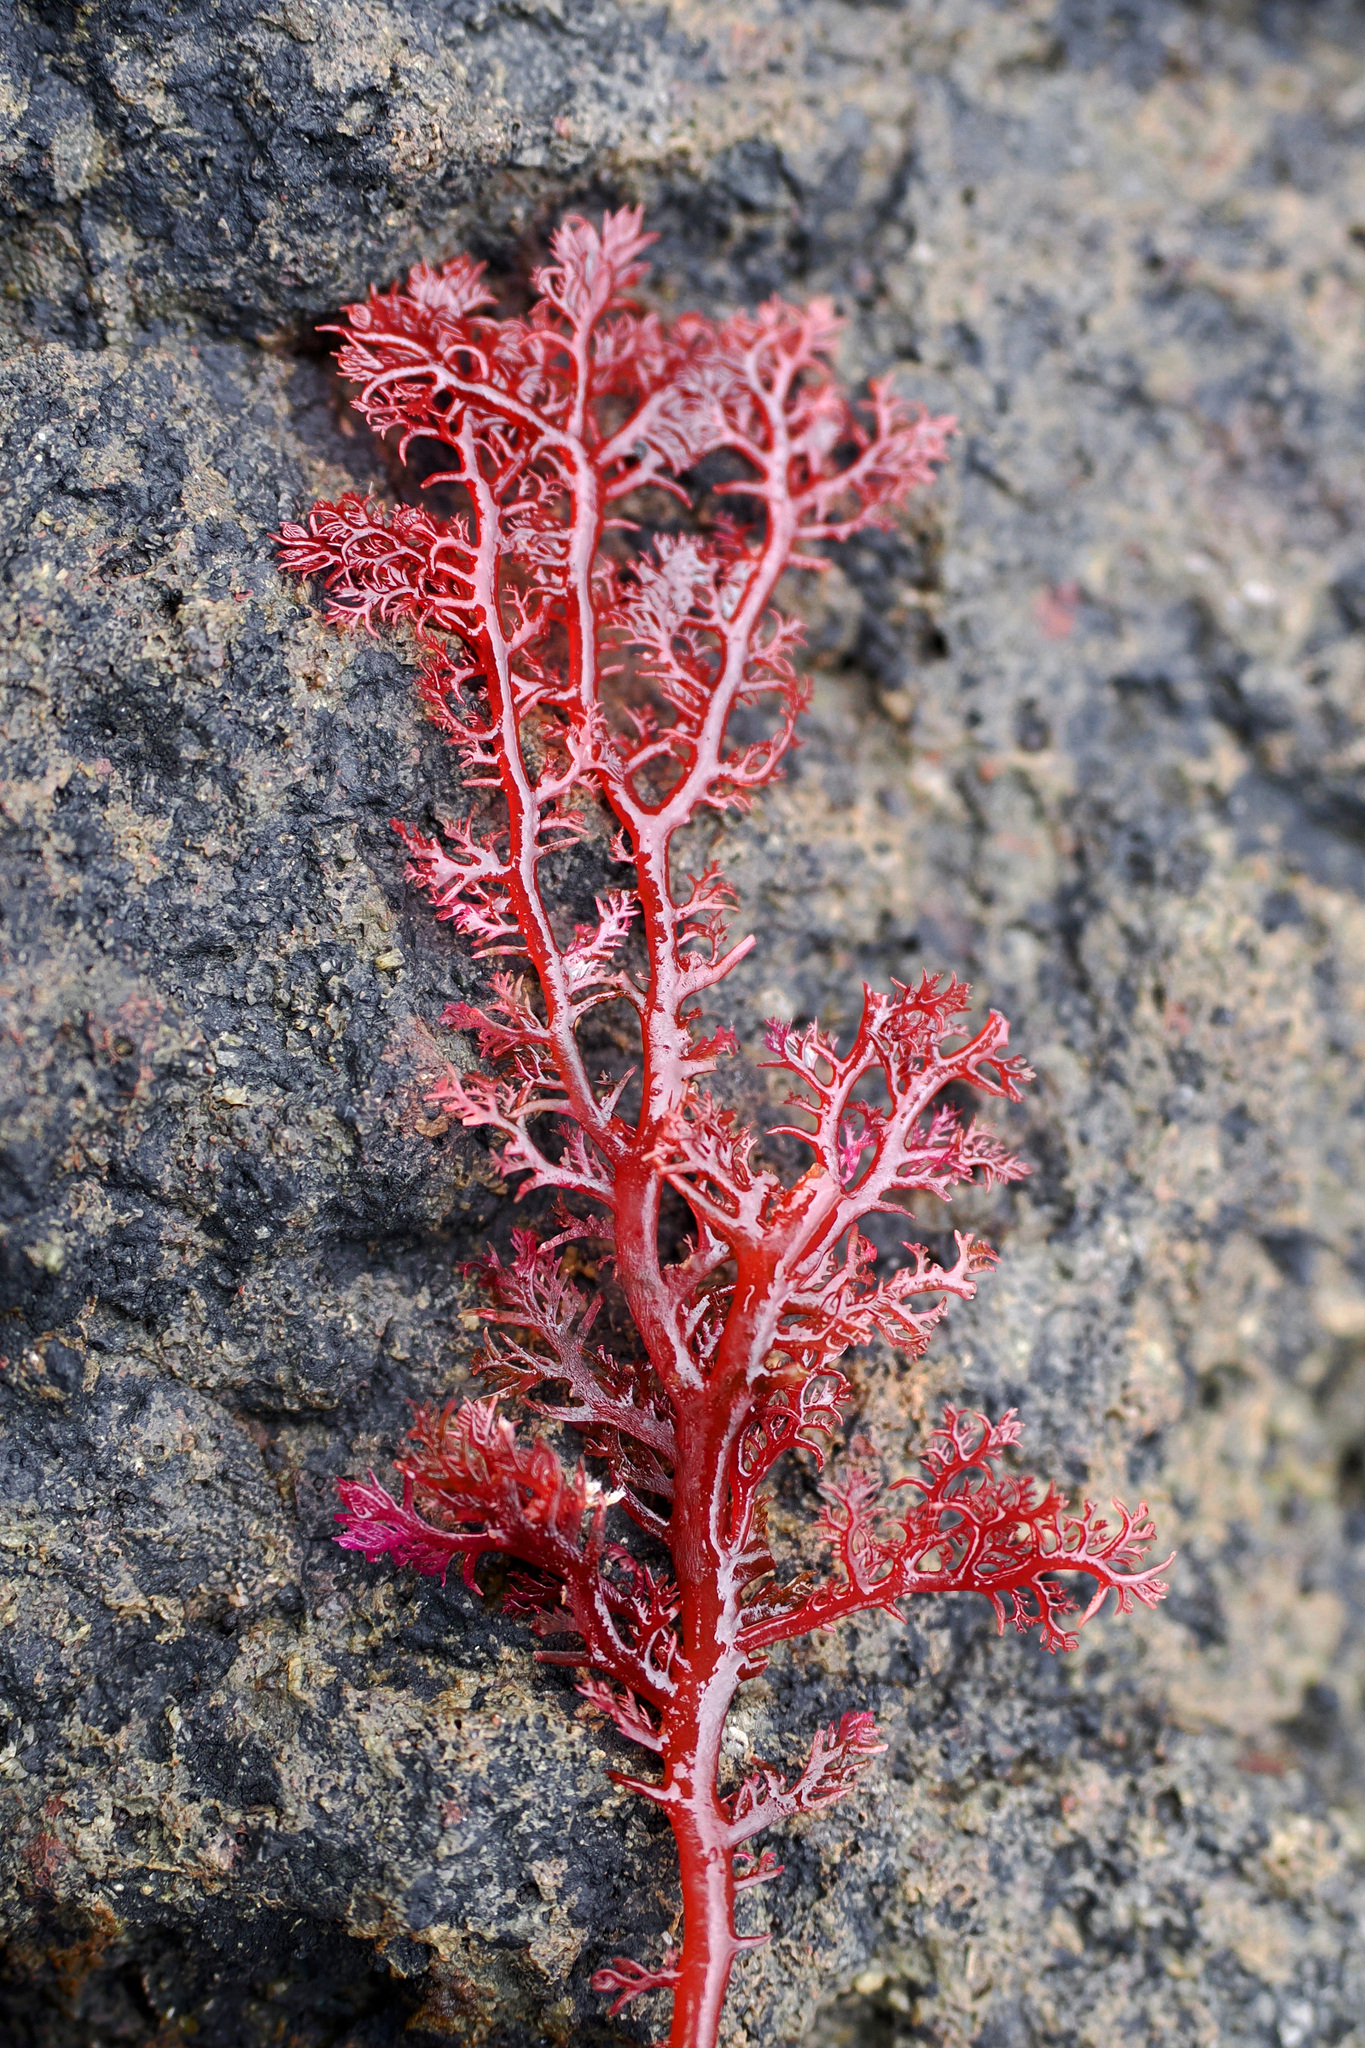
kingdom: Plantae
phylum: Rhodophyta
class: Florideophyceae
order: Plocamiales
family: Plocamiaceae
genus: Plocamium
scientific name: Plocamium cartilagineum
